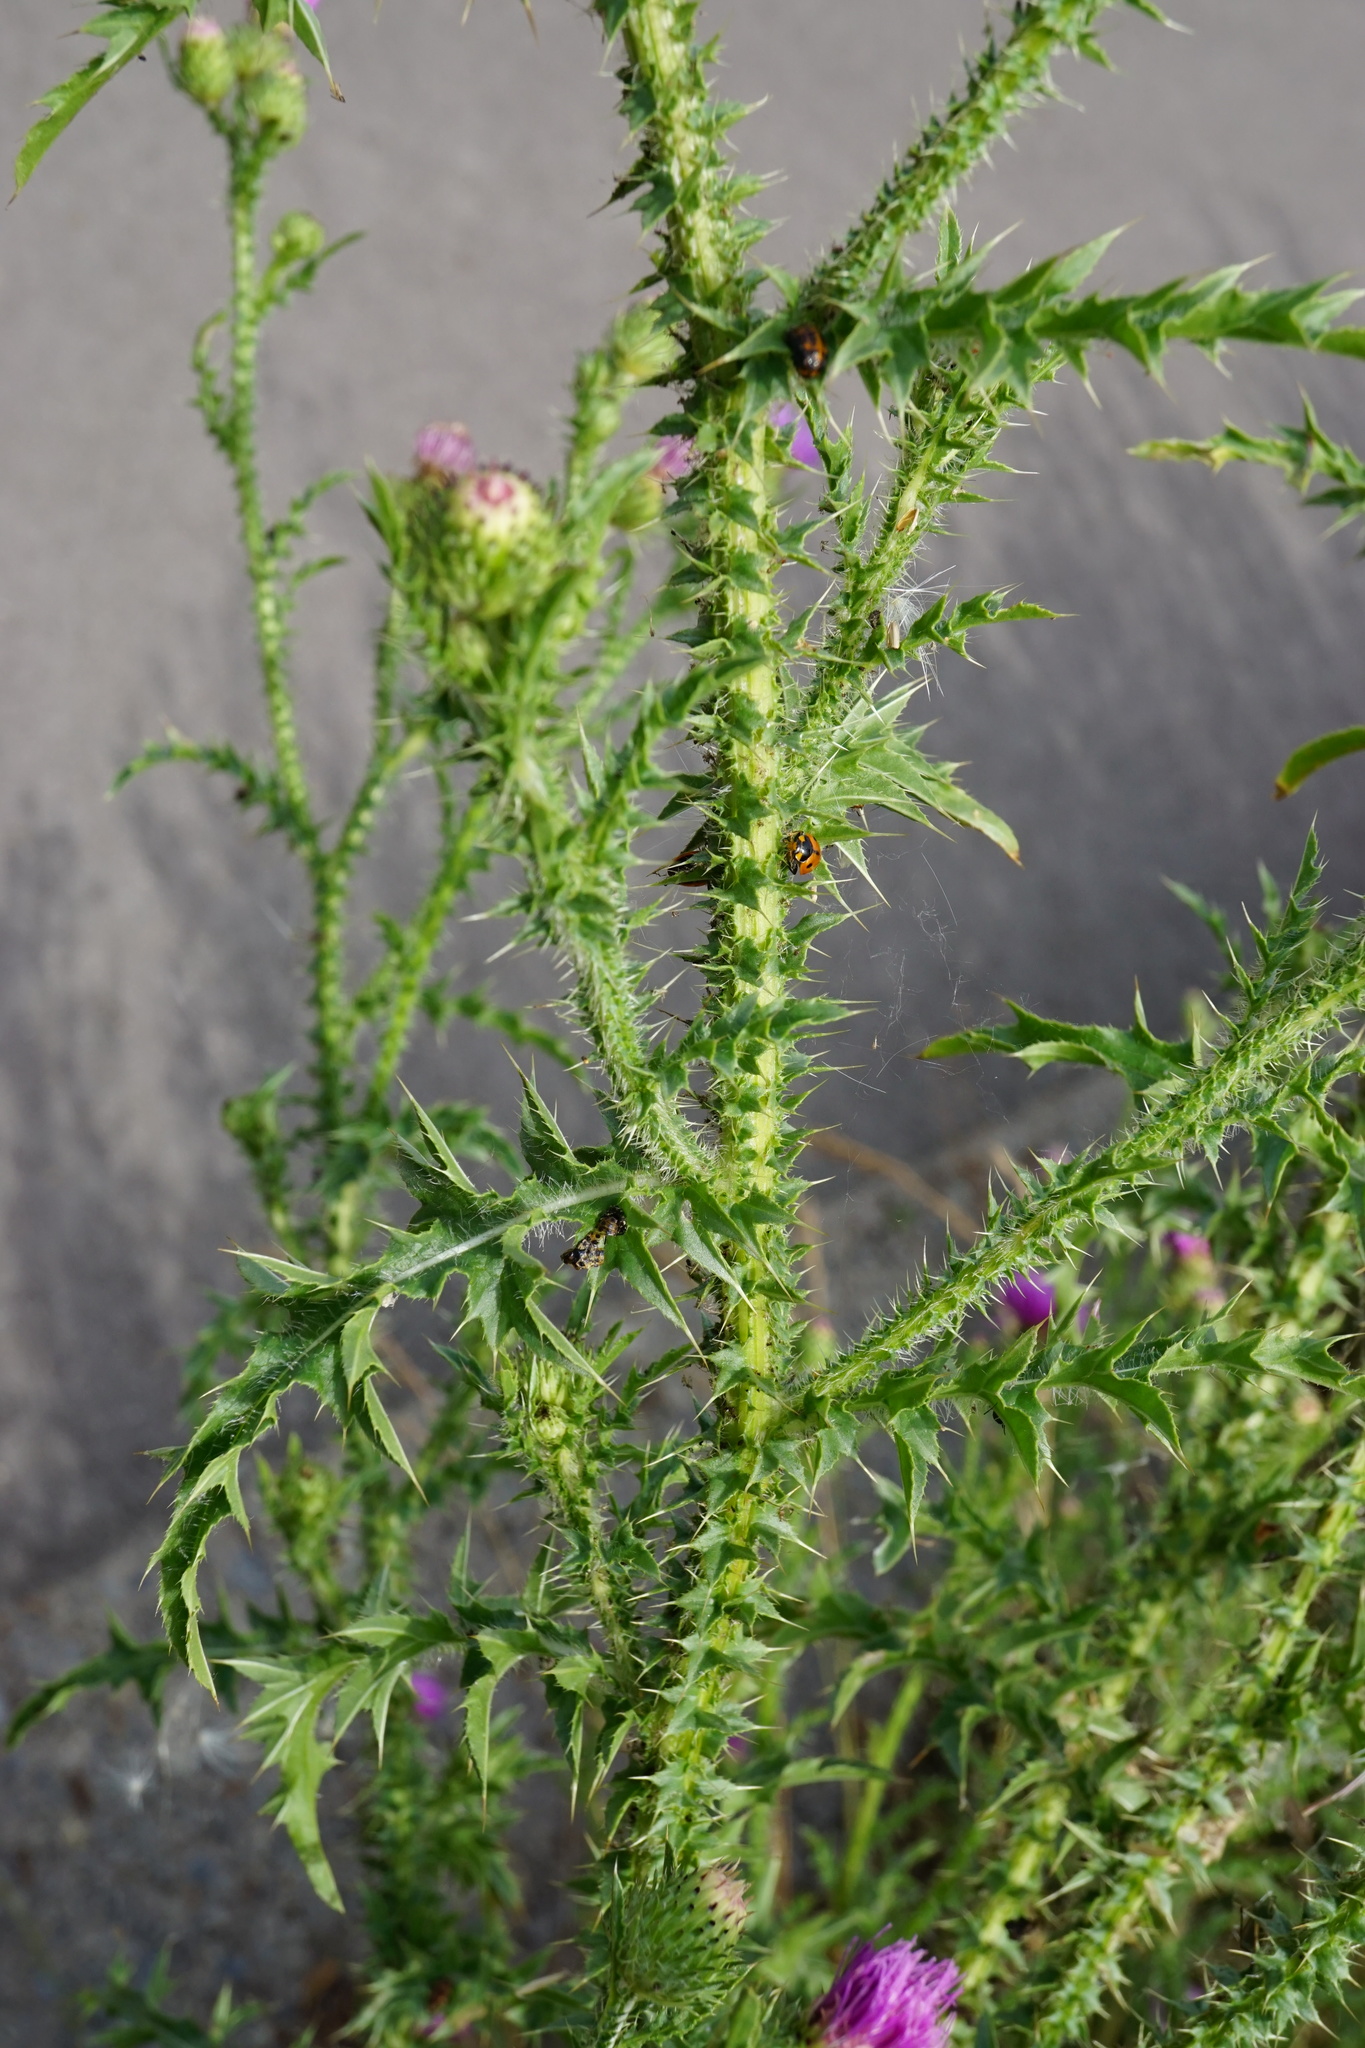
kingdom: Plantae
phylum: Tracheophyta
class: Magnoliopsida
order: Asterales
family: Asteraceae
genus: Carduus
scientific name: Carduus acanthoides
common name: Plumeless thistle
